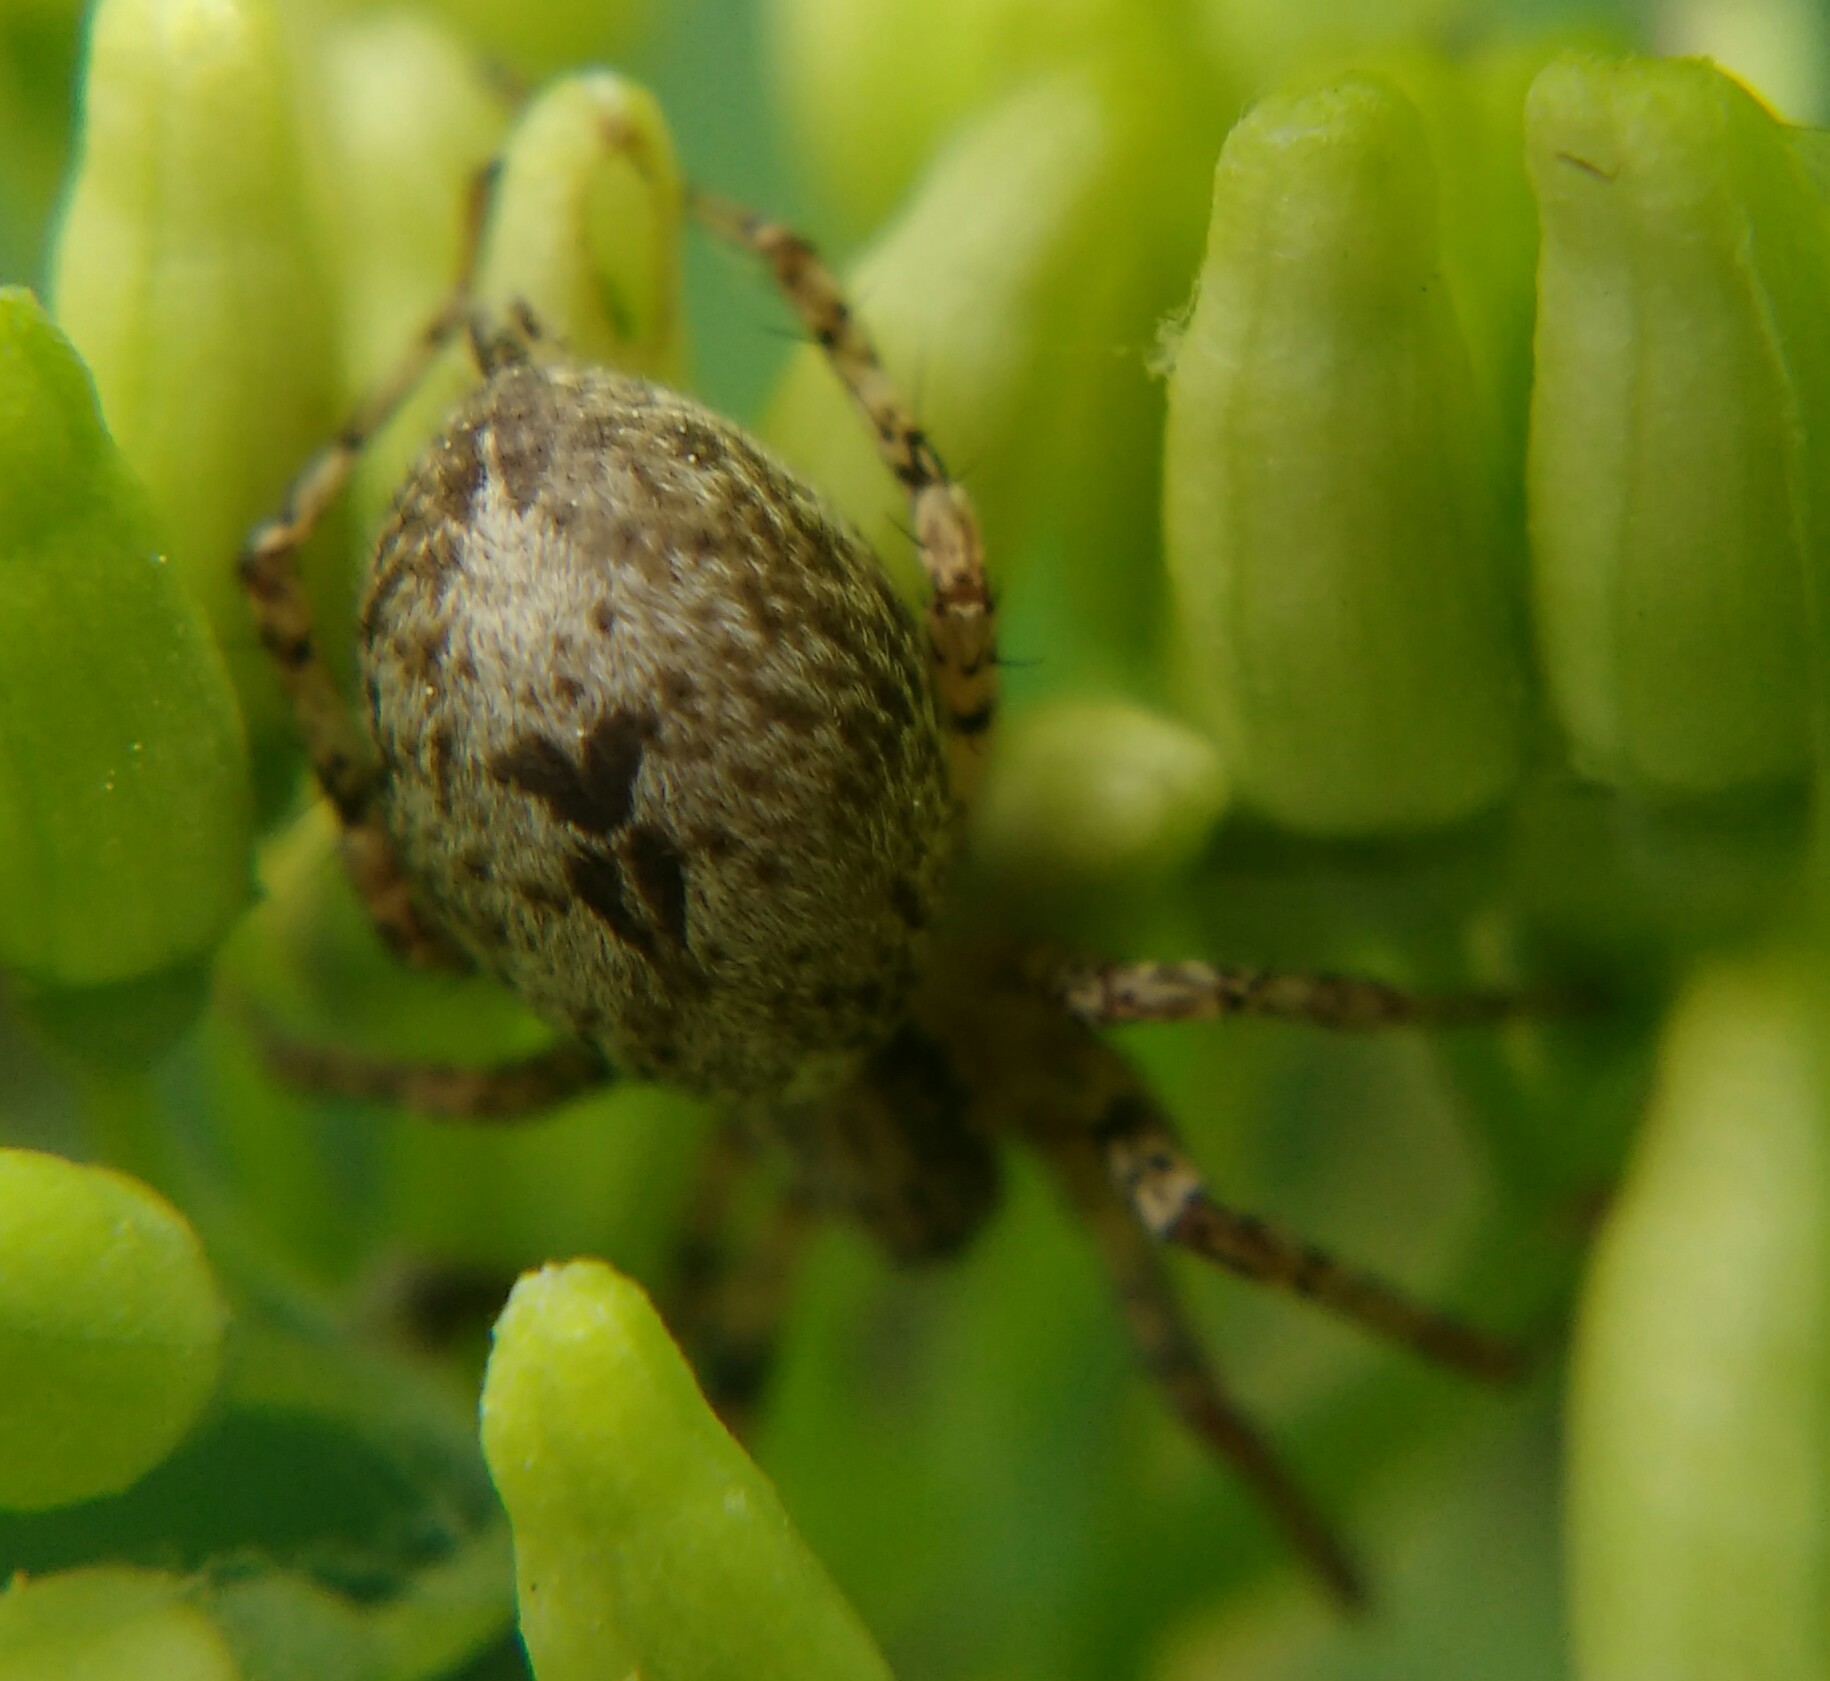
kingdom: Animalia
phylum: Arthropoda
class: Arachnida
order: Araneae
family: Anyphaenidae
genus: Anyphaena
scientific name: Anyphaena accentuata
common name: Buzzing spider
